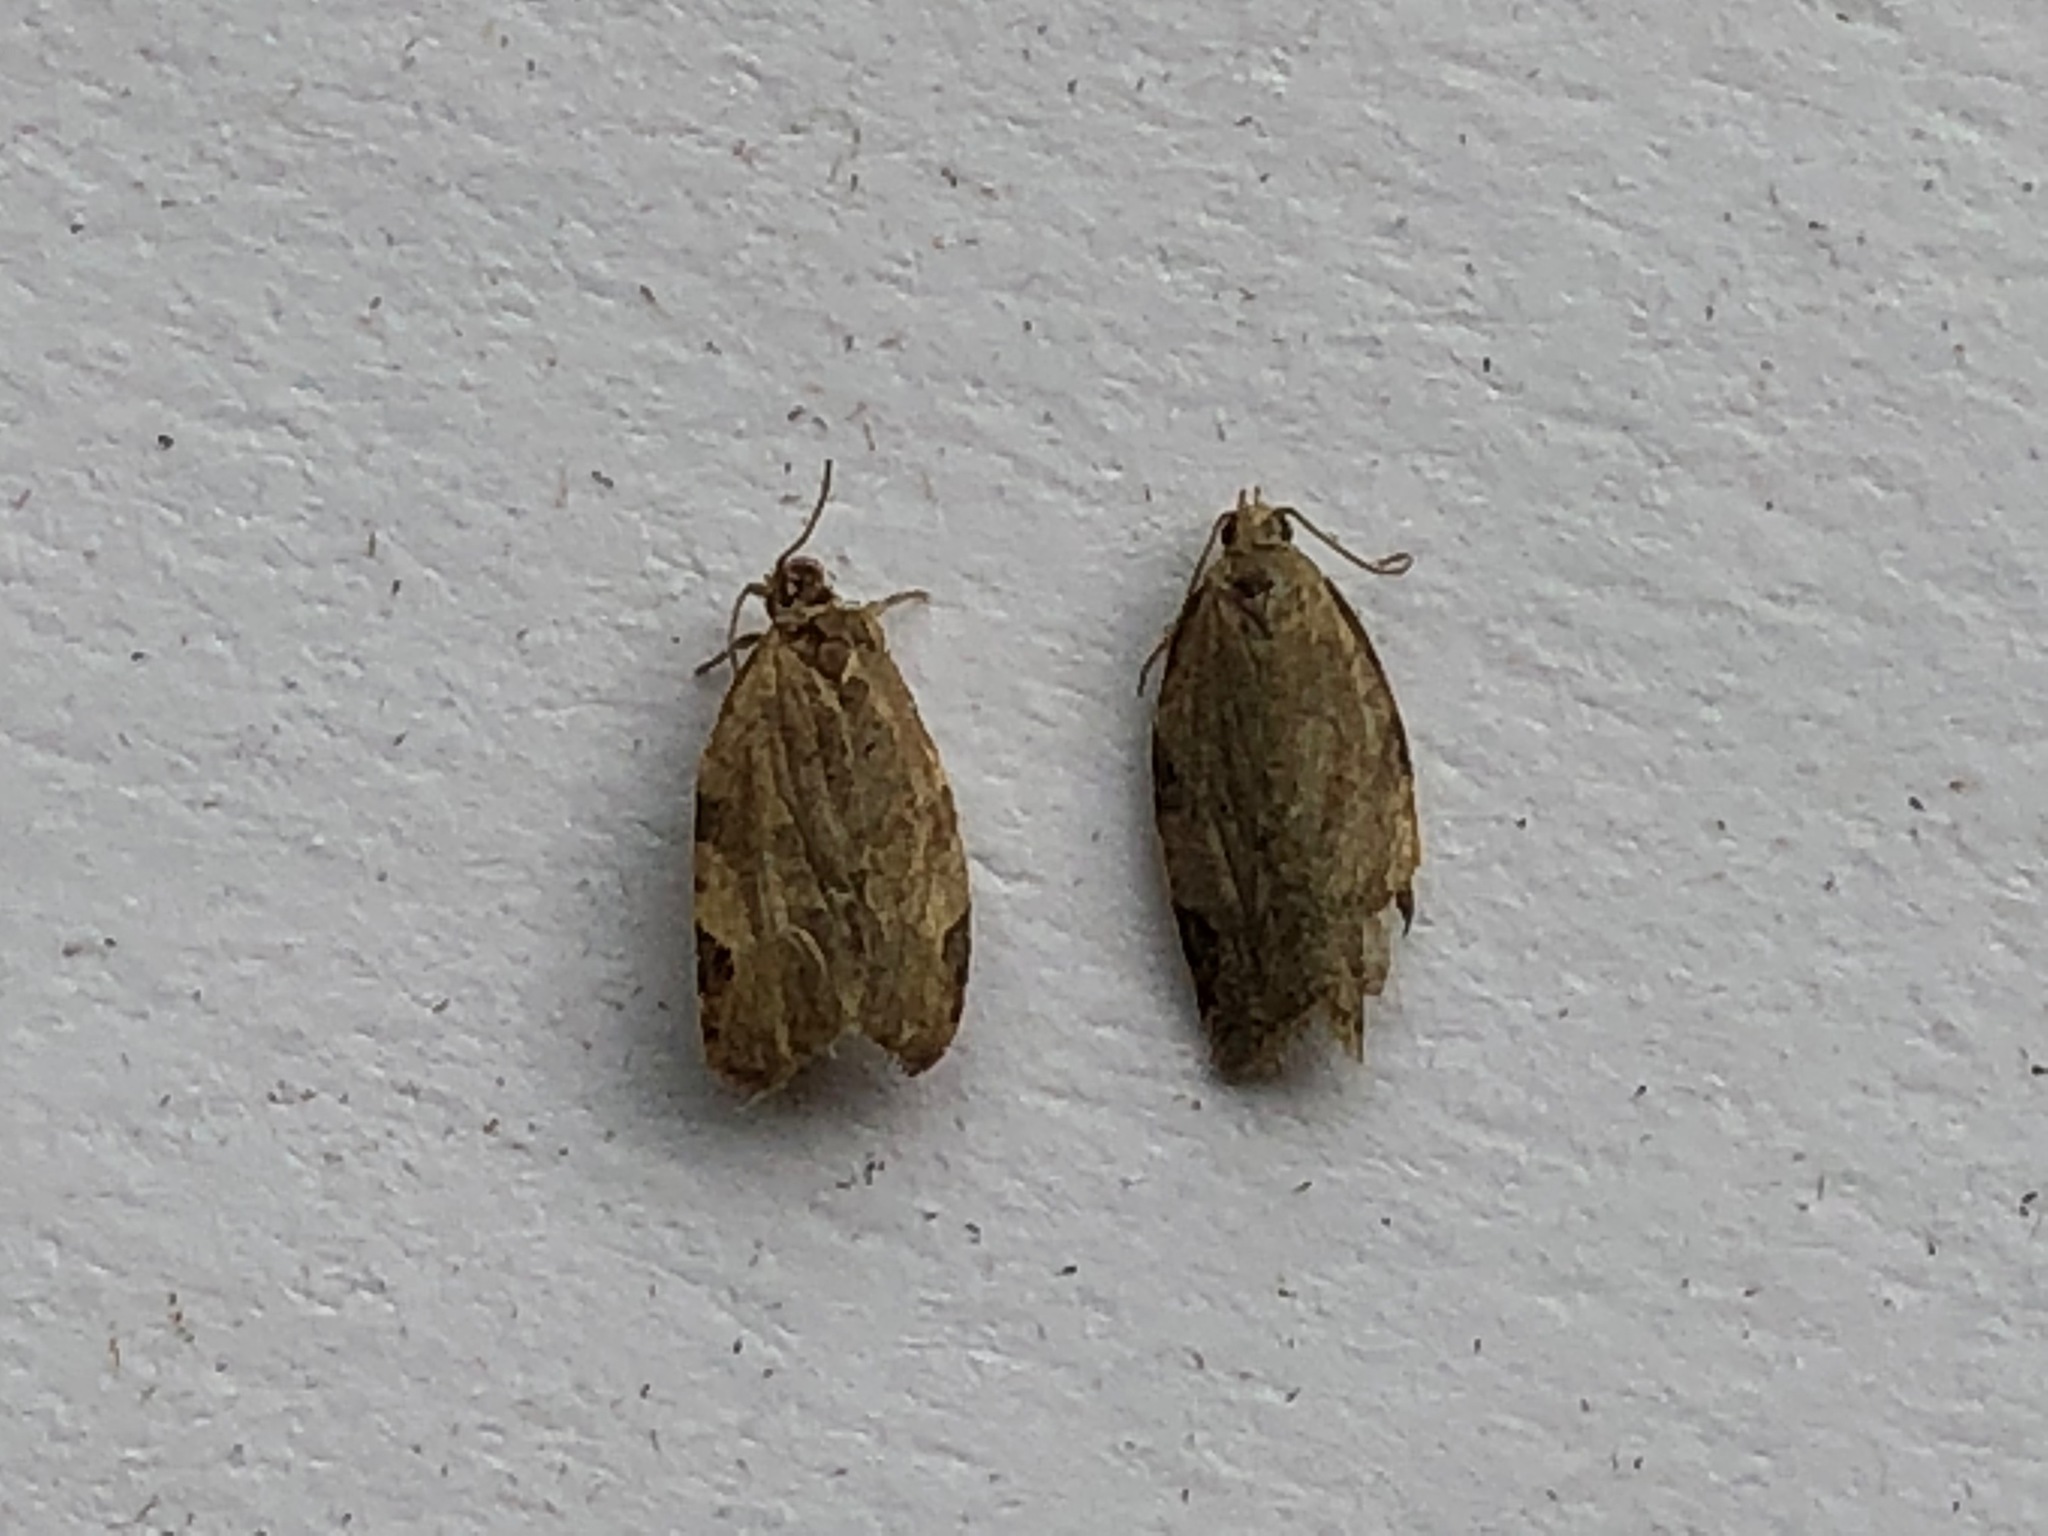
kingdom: Animalia
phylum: Arthropoda
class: Insecta
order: Lepidoptera
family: Tortricidae
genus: Clepsis
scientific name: Clepsis virescana
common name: Greenish apple moth
